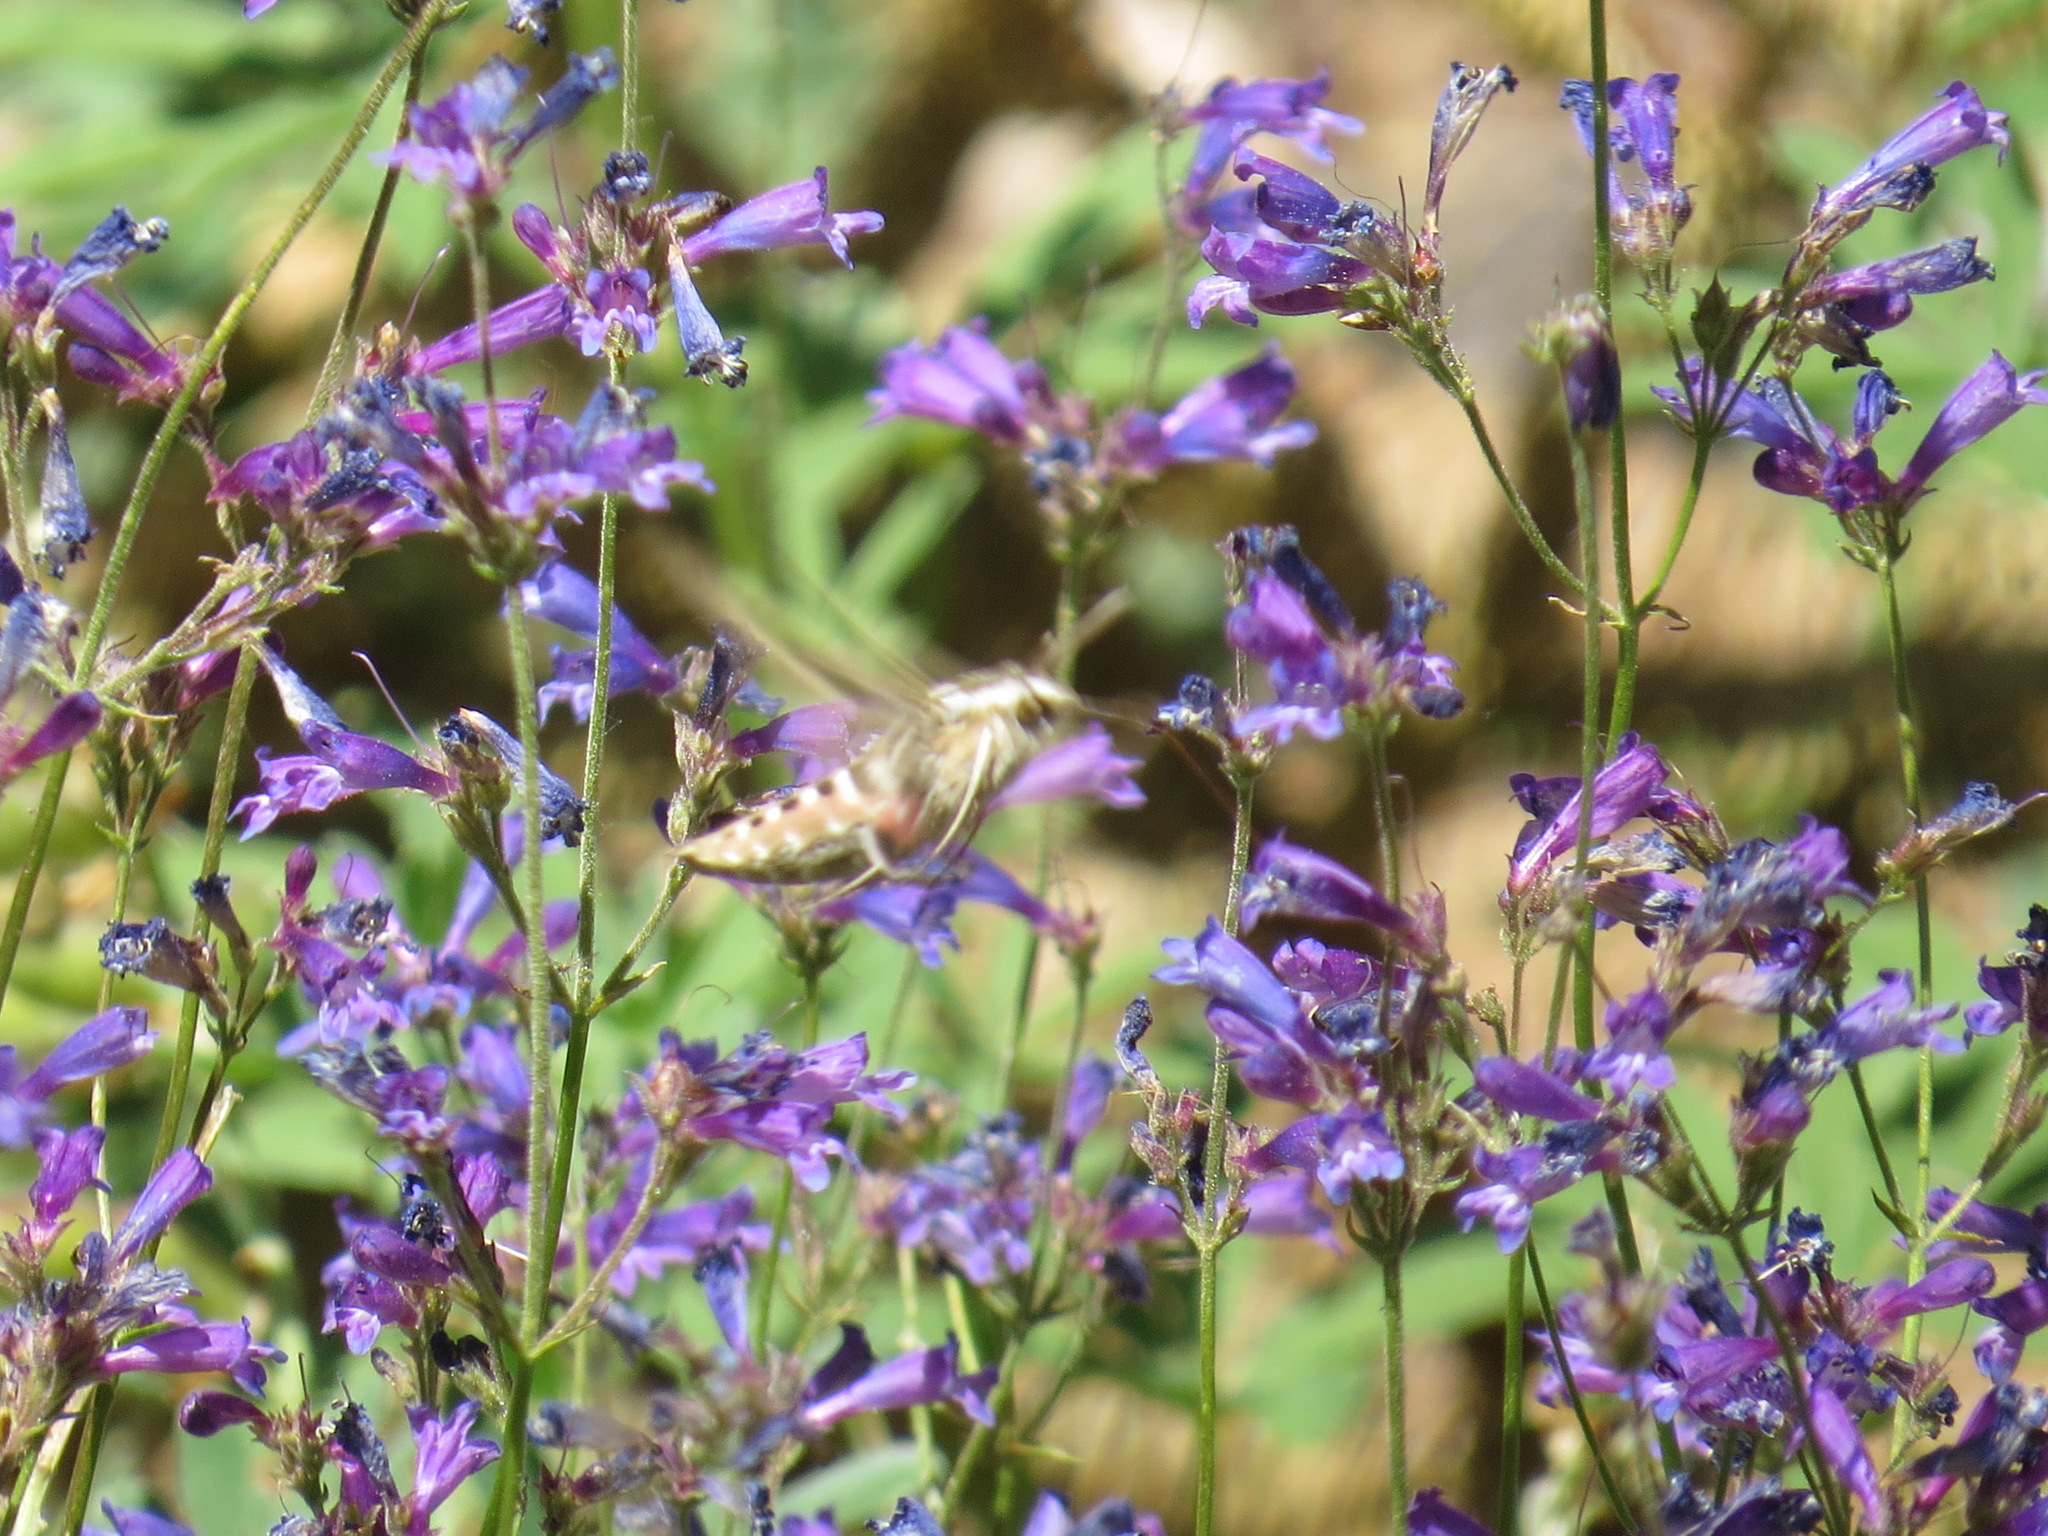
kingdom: Animalia
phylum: Arthropoda
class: Insecta
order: Lepidoptera
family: Sphingidae
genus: Hyles
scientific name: Hyles lineata
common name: White-lined sphinx
